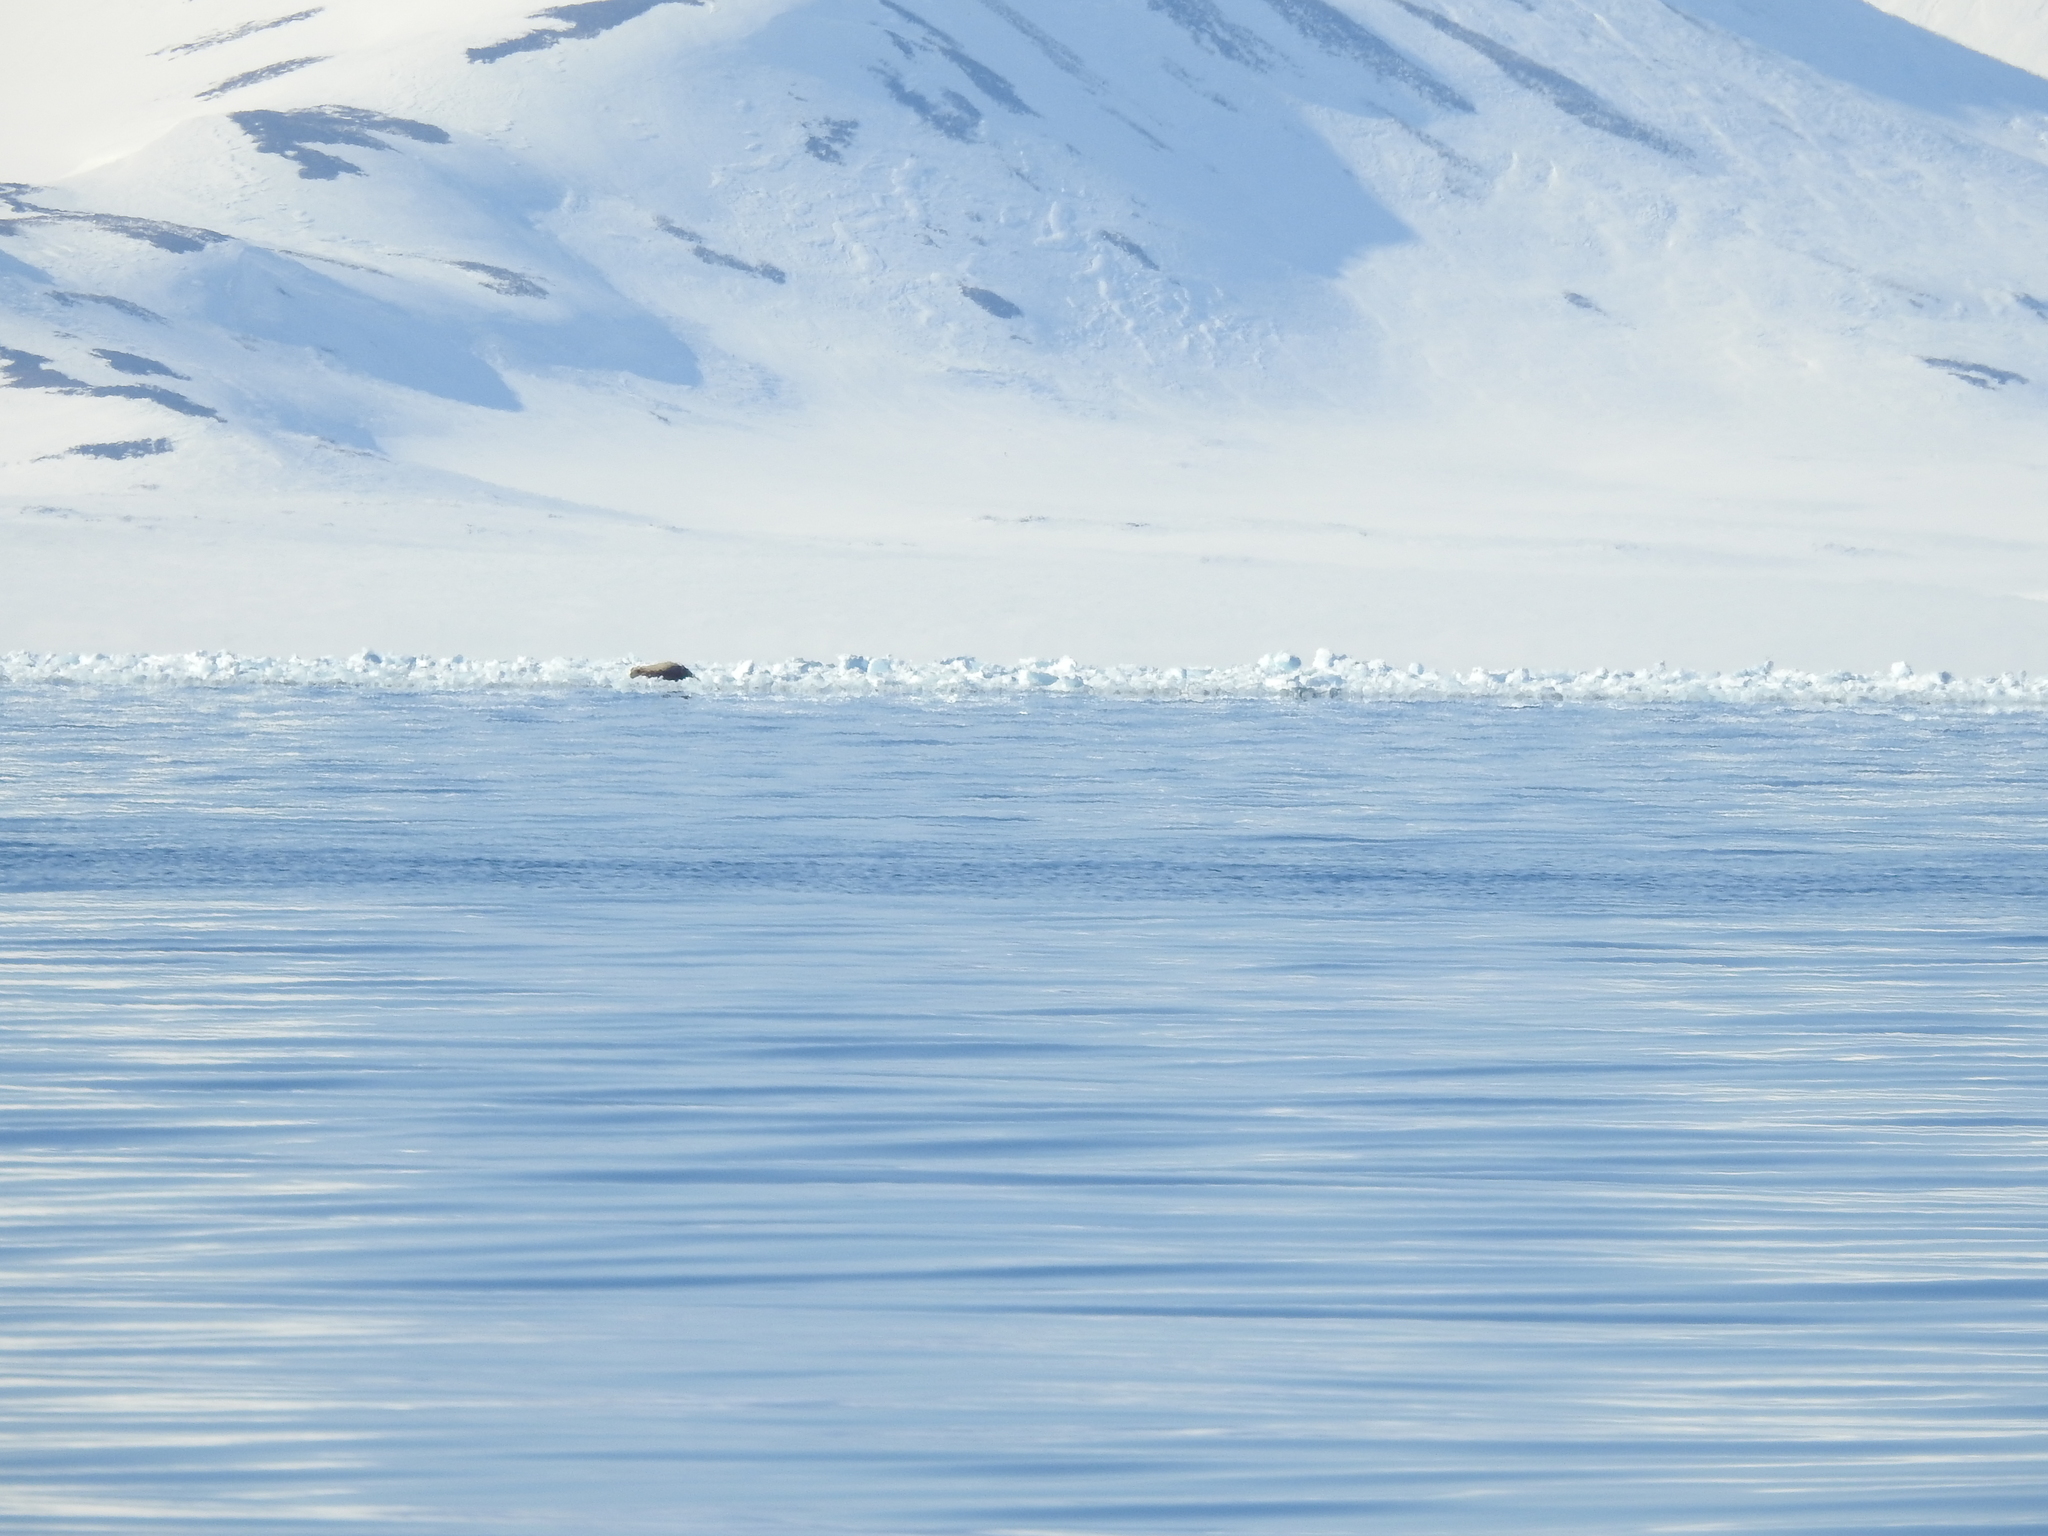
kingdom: Animalia
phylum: Chordata
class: Mammalia
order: Carnivora
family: Odobenidae
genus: Odobenus
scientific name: Odobenus rosmarus
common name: Walrus
